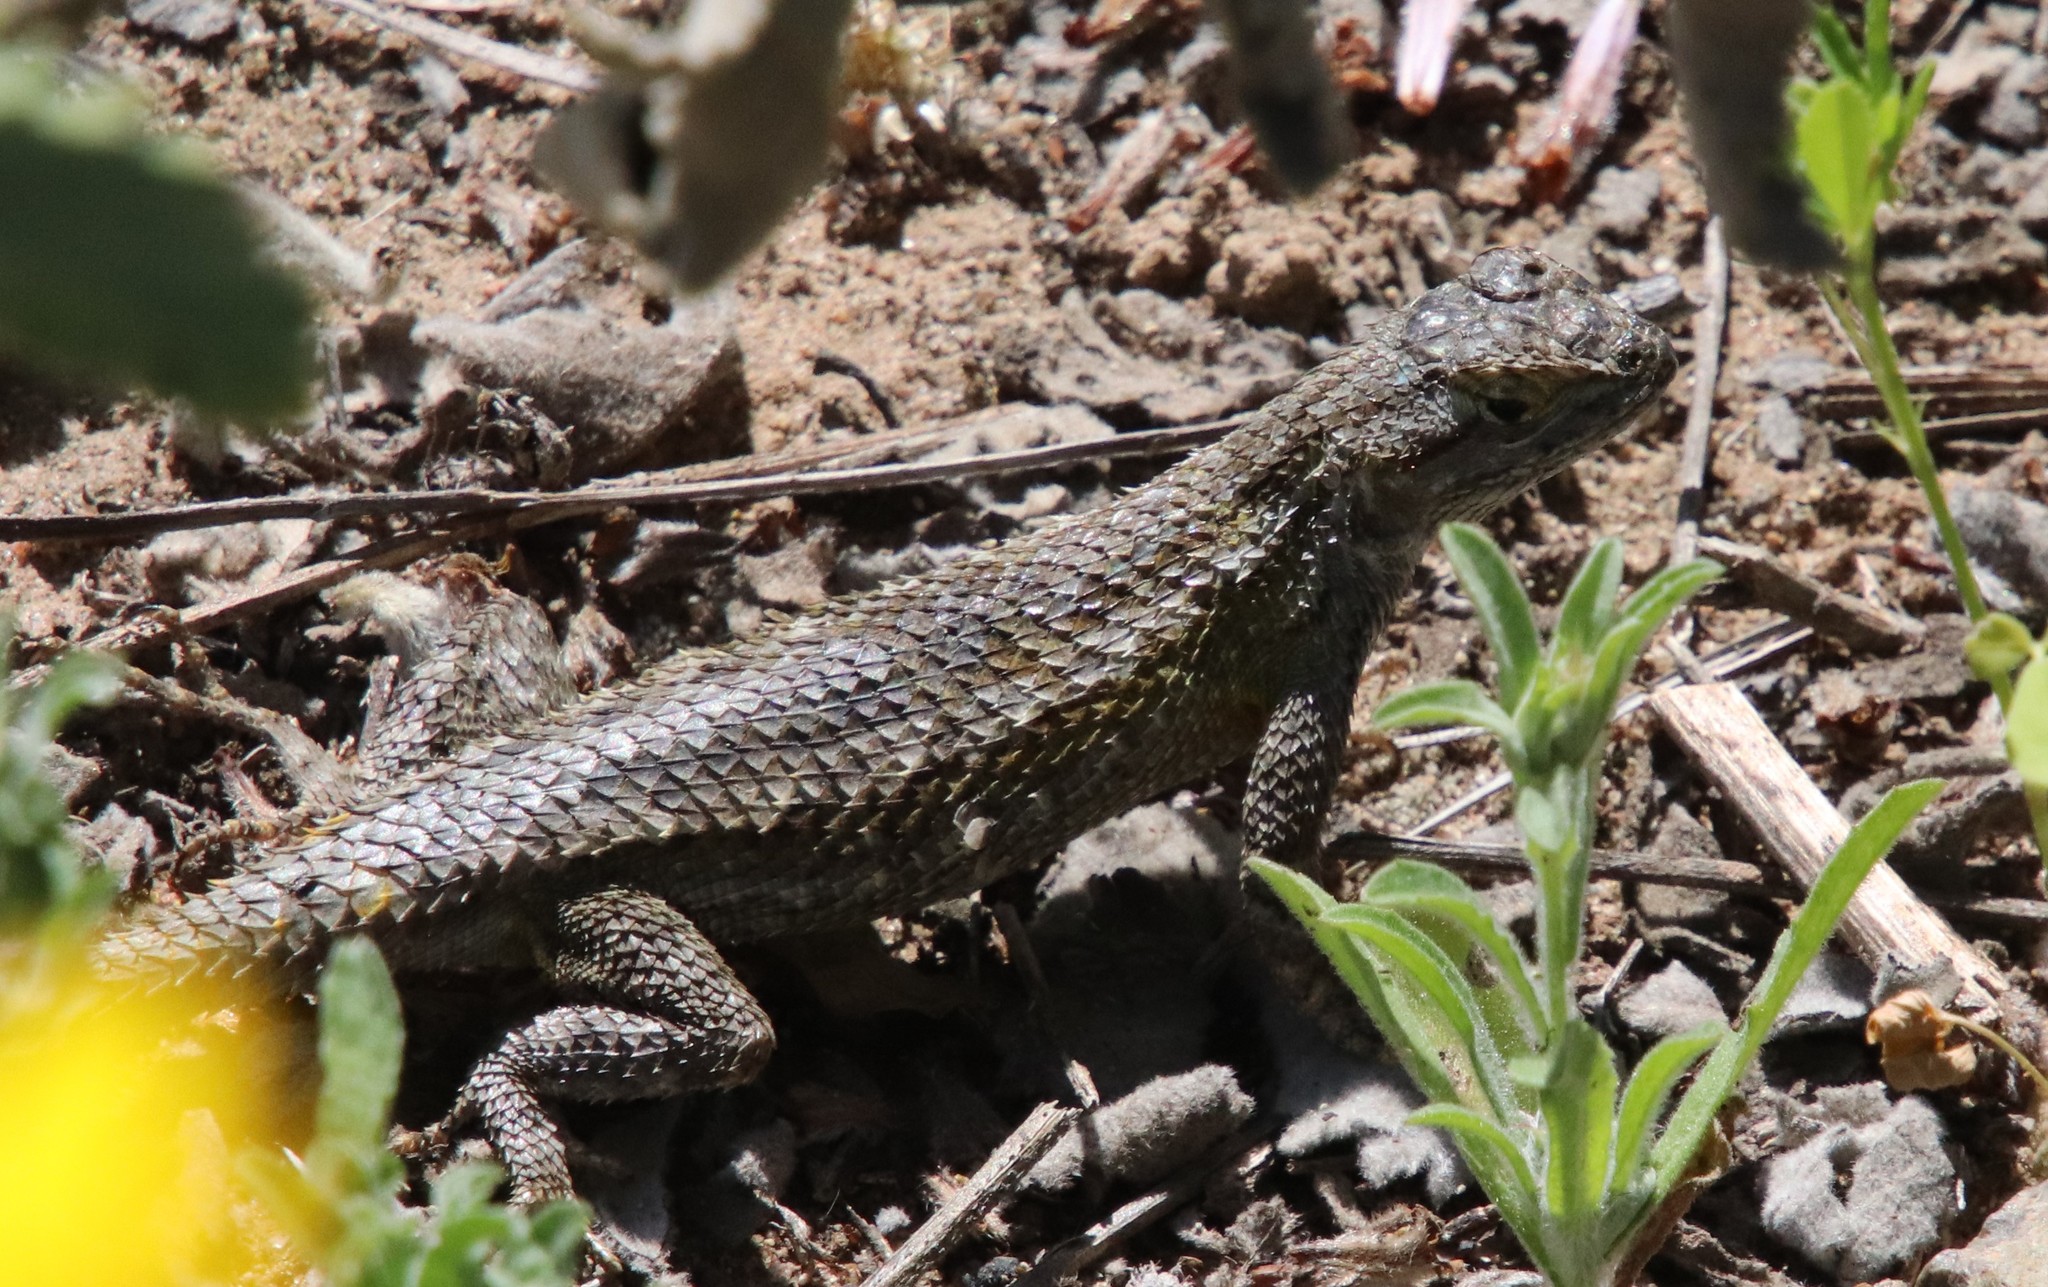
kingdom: Animalia
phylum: Chordata
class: Squamata
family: Phrynosomatidae
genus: Sceloporus
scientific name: Sceloporus occidentalis
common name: Western fence lizard
